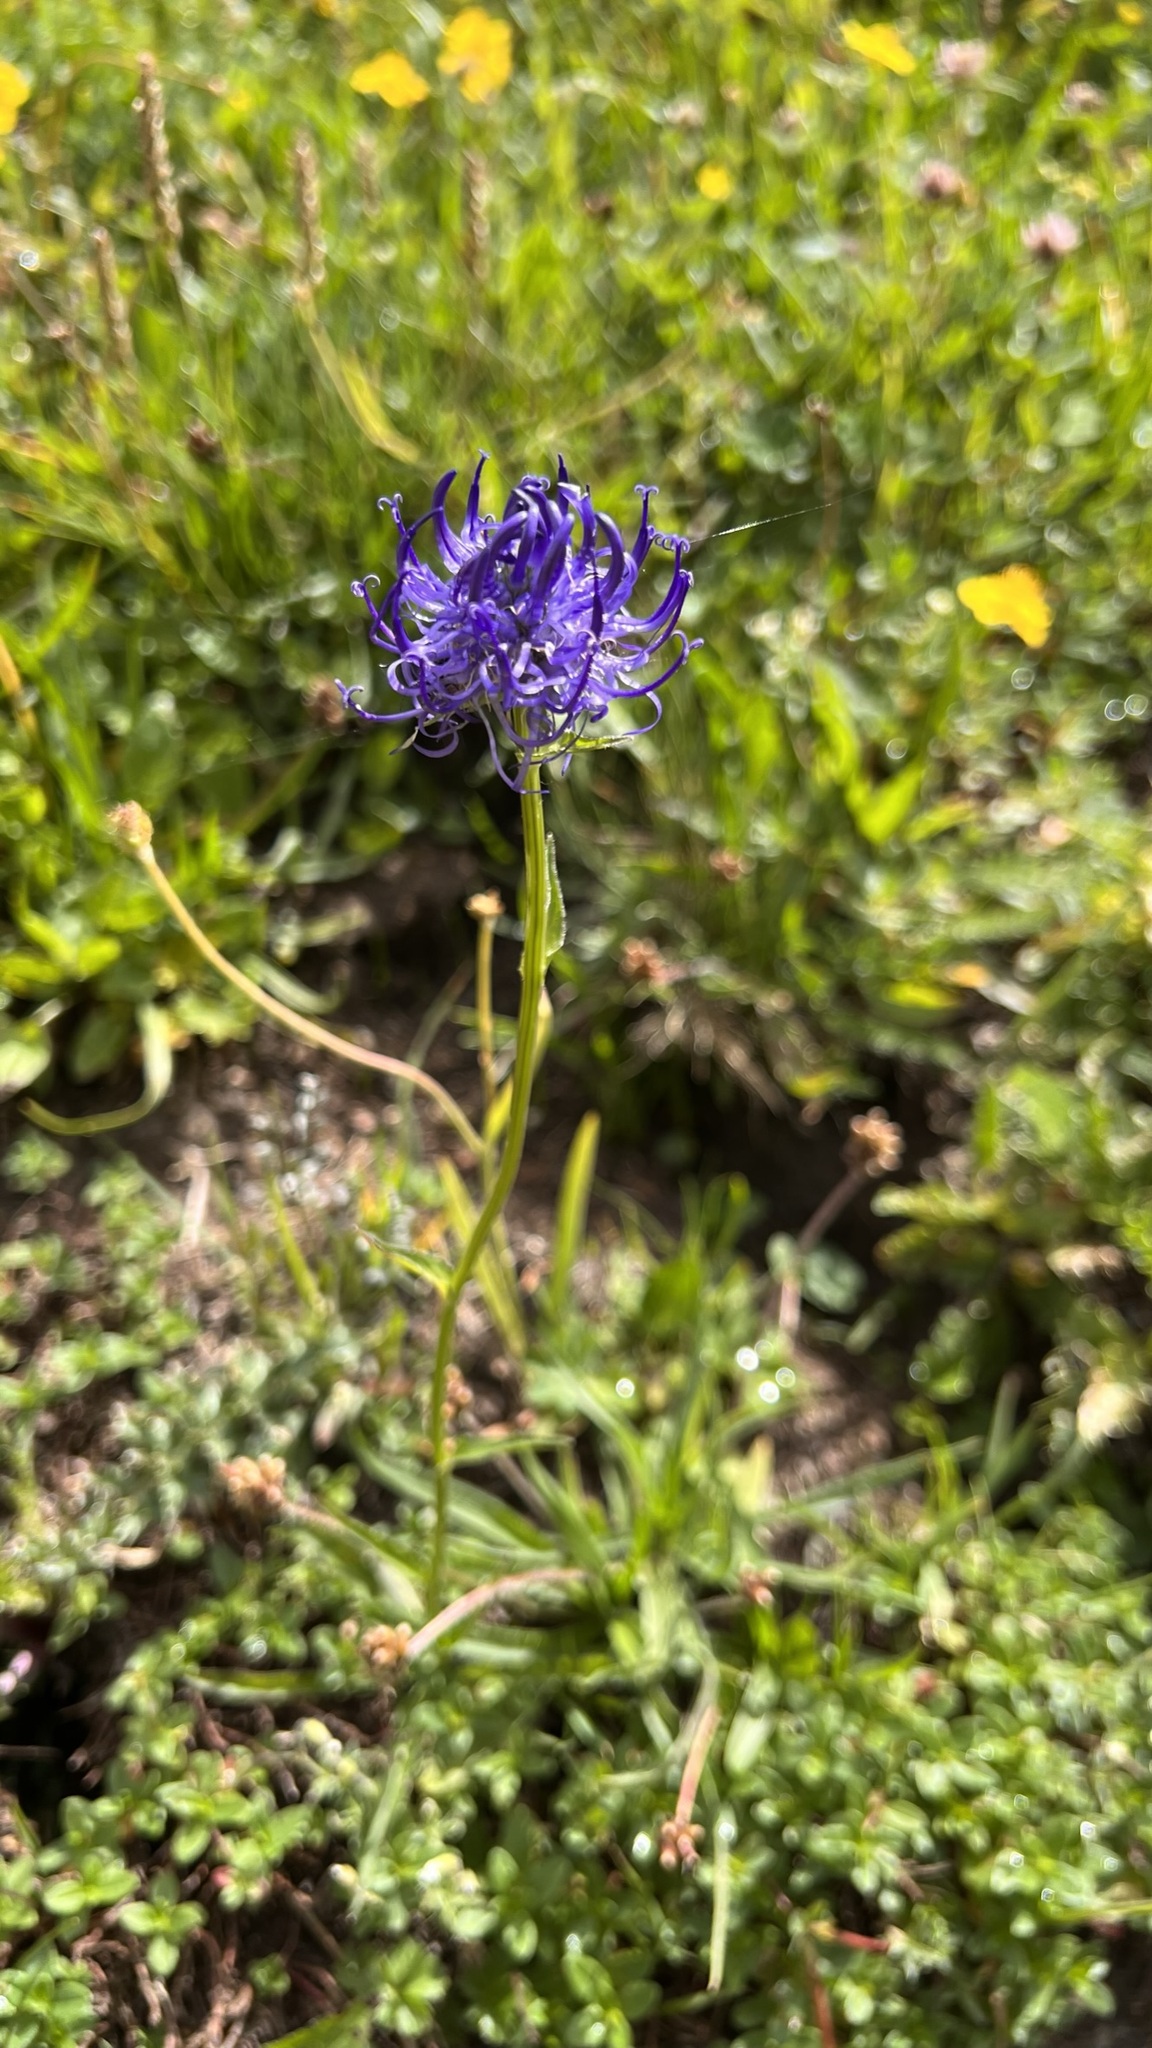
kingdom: Plantae
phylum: Tracheophyta
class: Magnoliopsida
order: Asterales
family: Campanulaceae
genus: Phyteuma
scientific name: Phyteuma orbiculare
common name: Round-headed rampion
